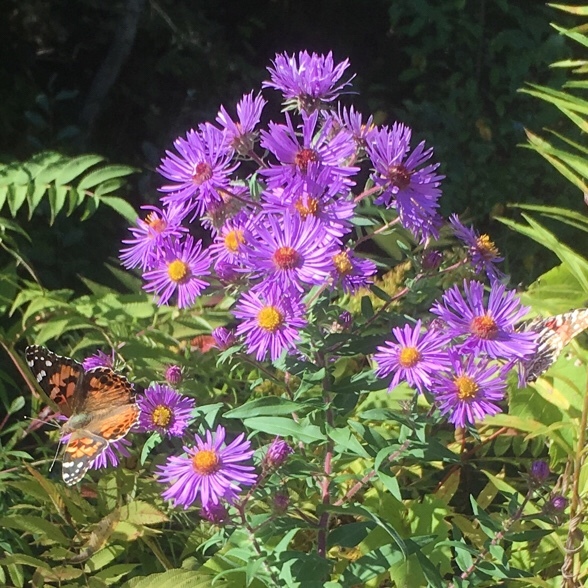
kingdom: Animalia
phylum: Arthropoda
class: Insecta
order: Lepidoptera
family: Nymphalidae
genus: Vanessa
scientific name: Vanessa cardui
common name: Painted lady
